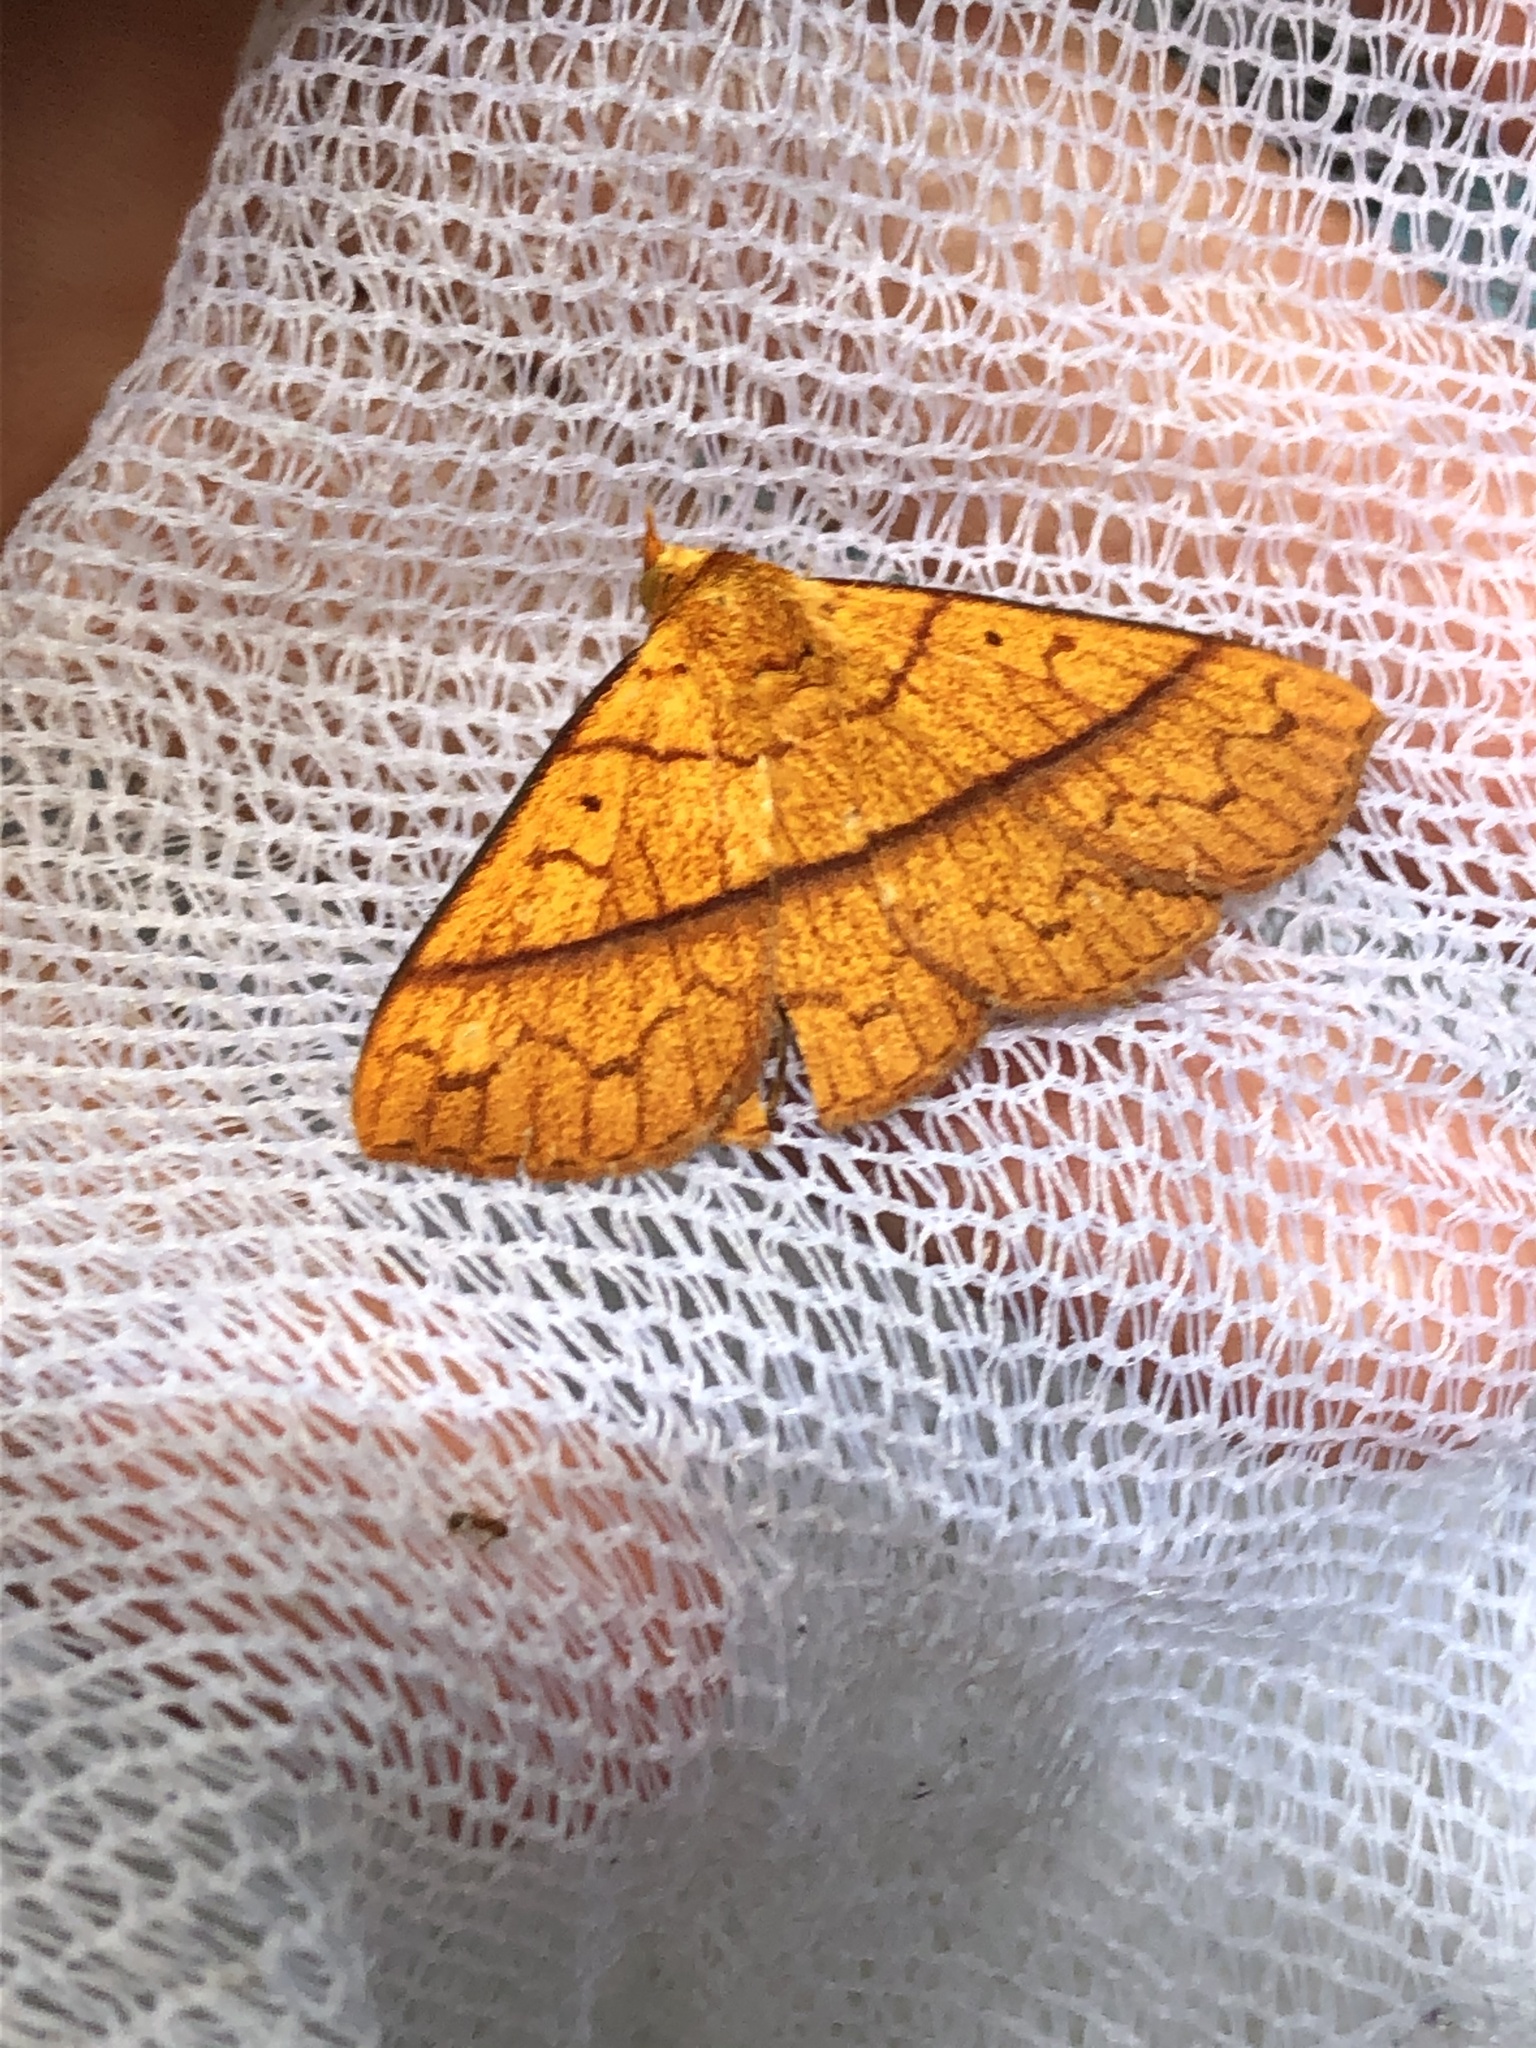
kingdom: Animalia
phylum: Arthropoda
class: Insecta
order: Lepidoptera
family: Erebidae
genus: Epitausa
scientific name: Epitausa dilina
